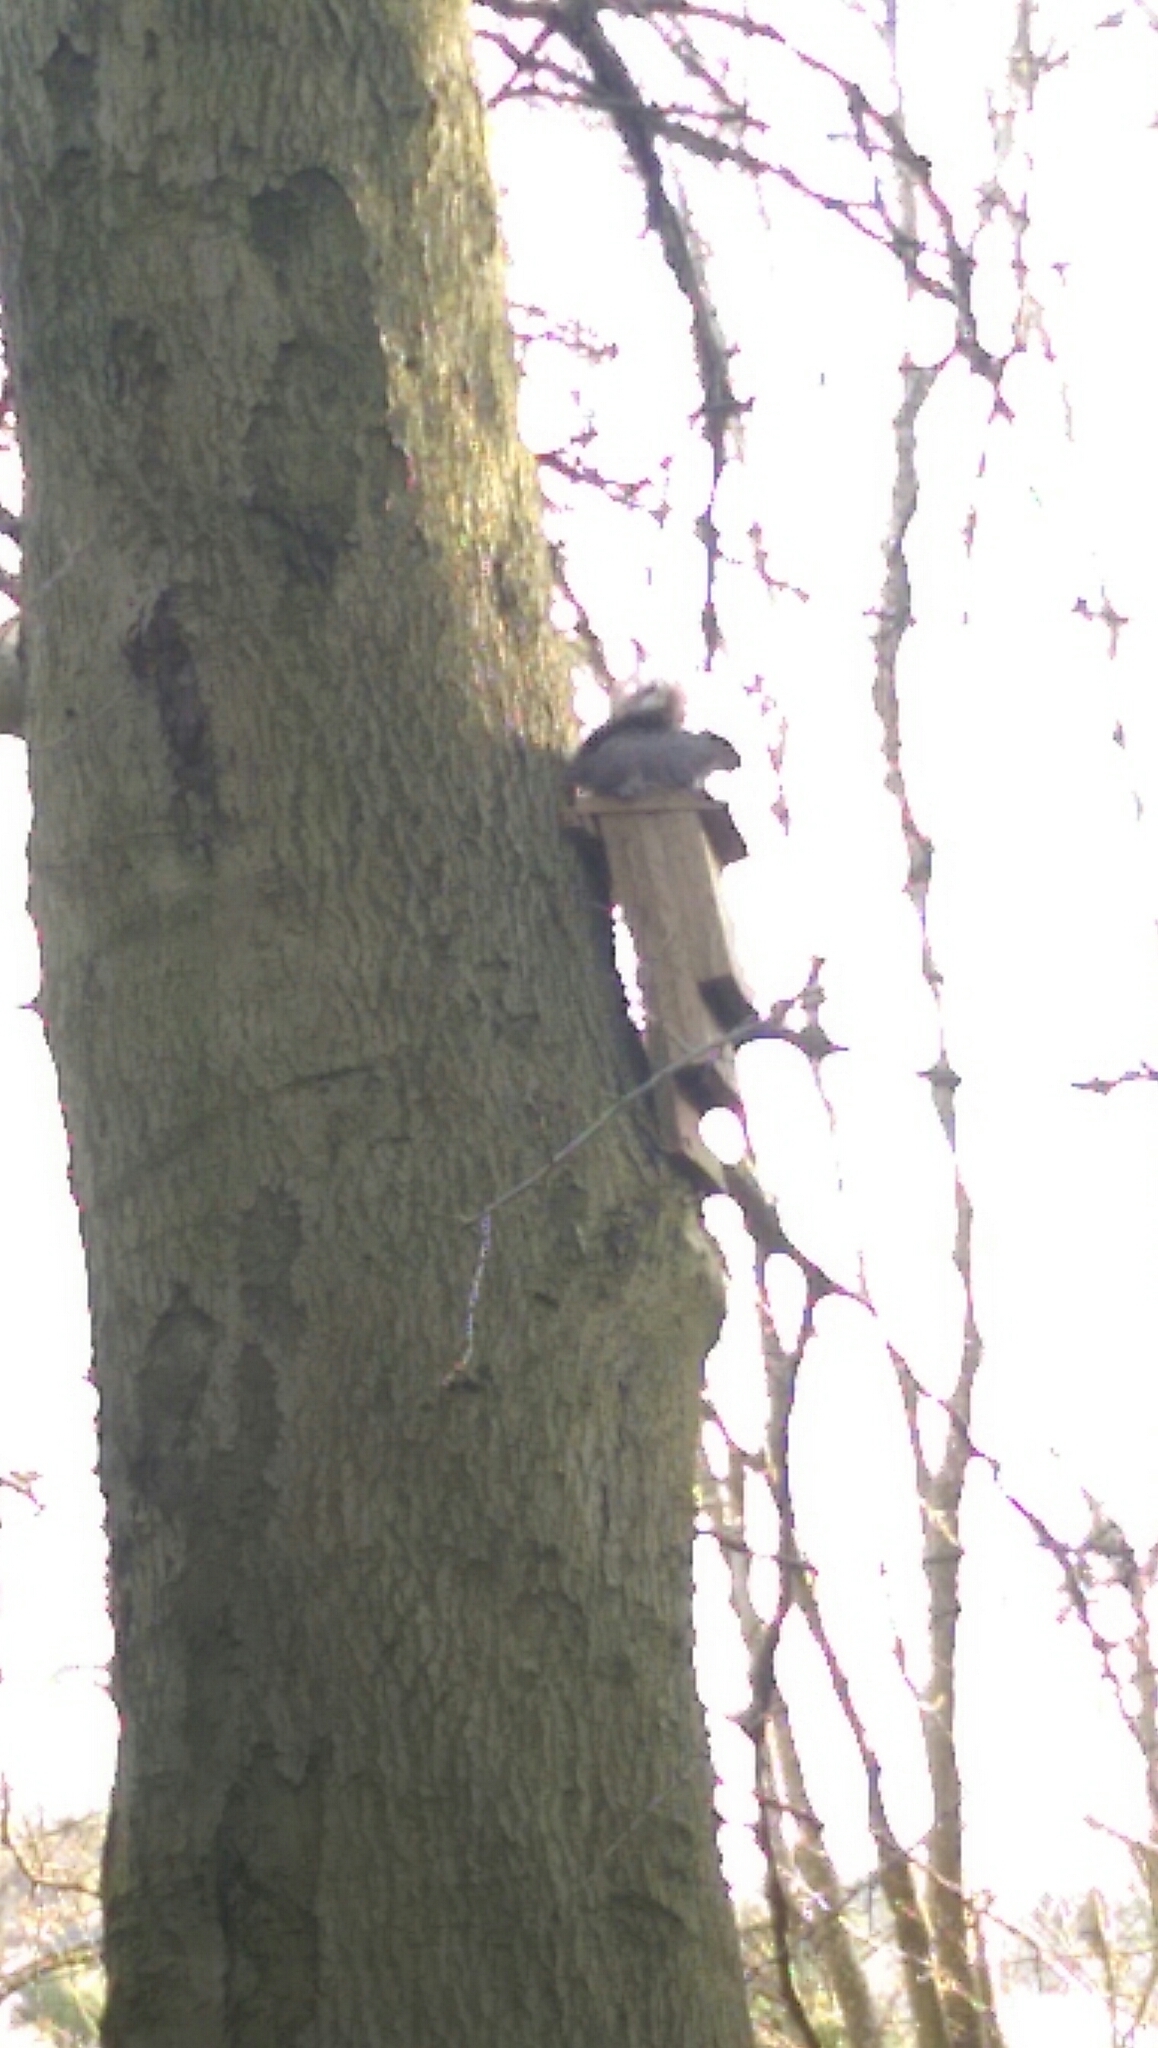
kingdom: Animalia
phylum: Chordata
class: Mammalia
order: Rodentia
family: Sciuridae
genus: Sciurus
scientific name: Sciurus carolinensis
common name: Eastern gray squirrel
